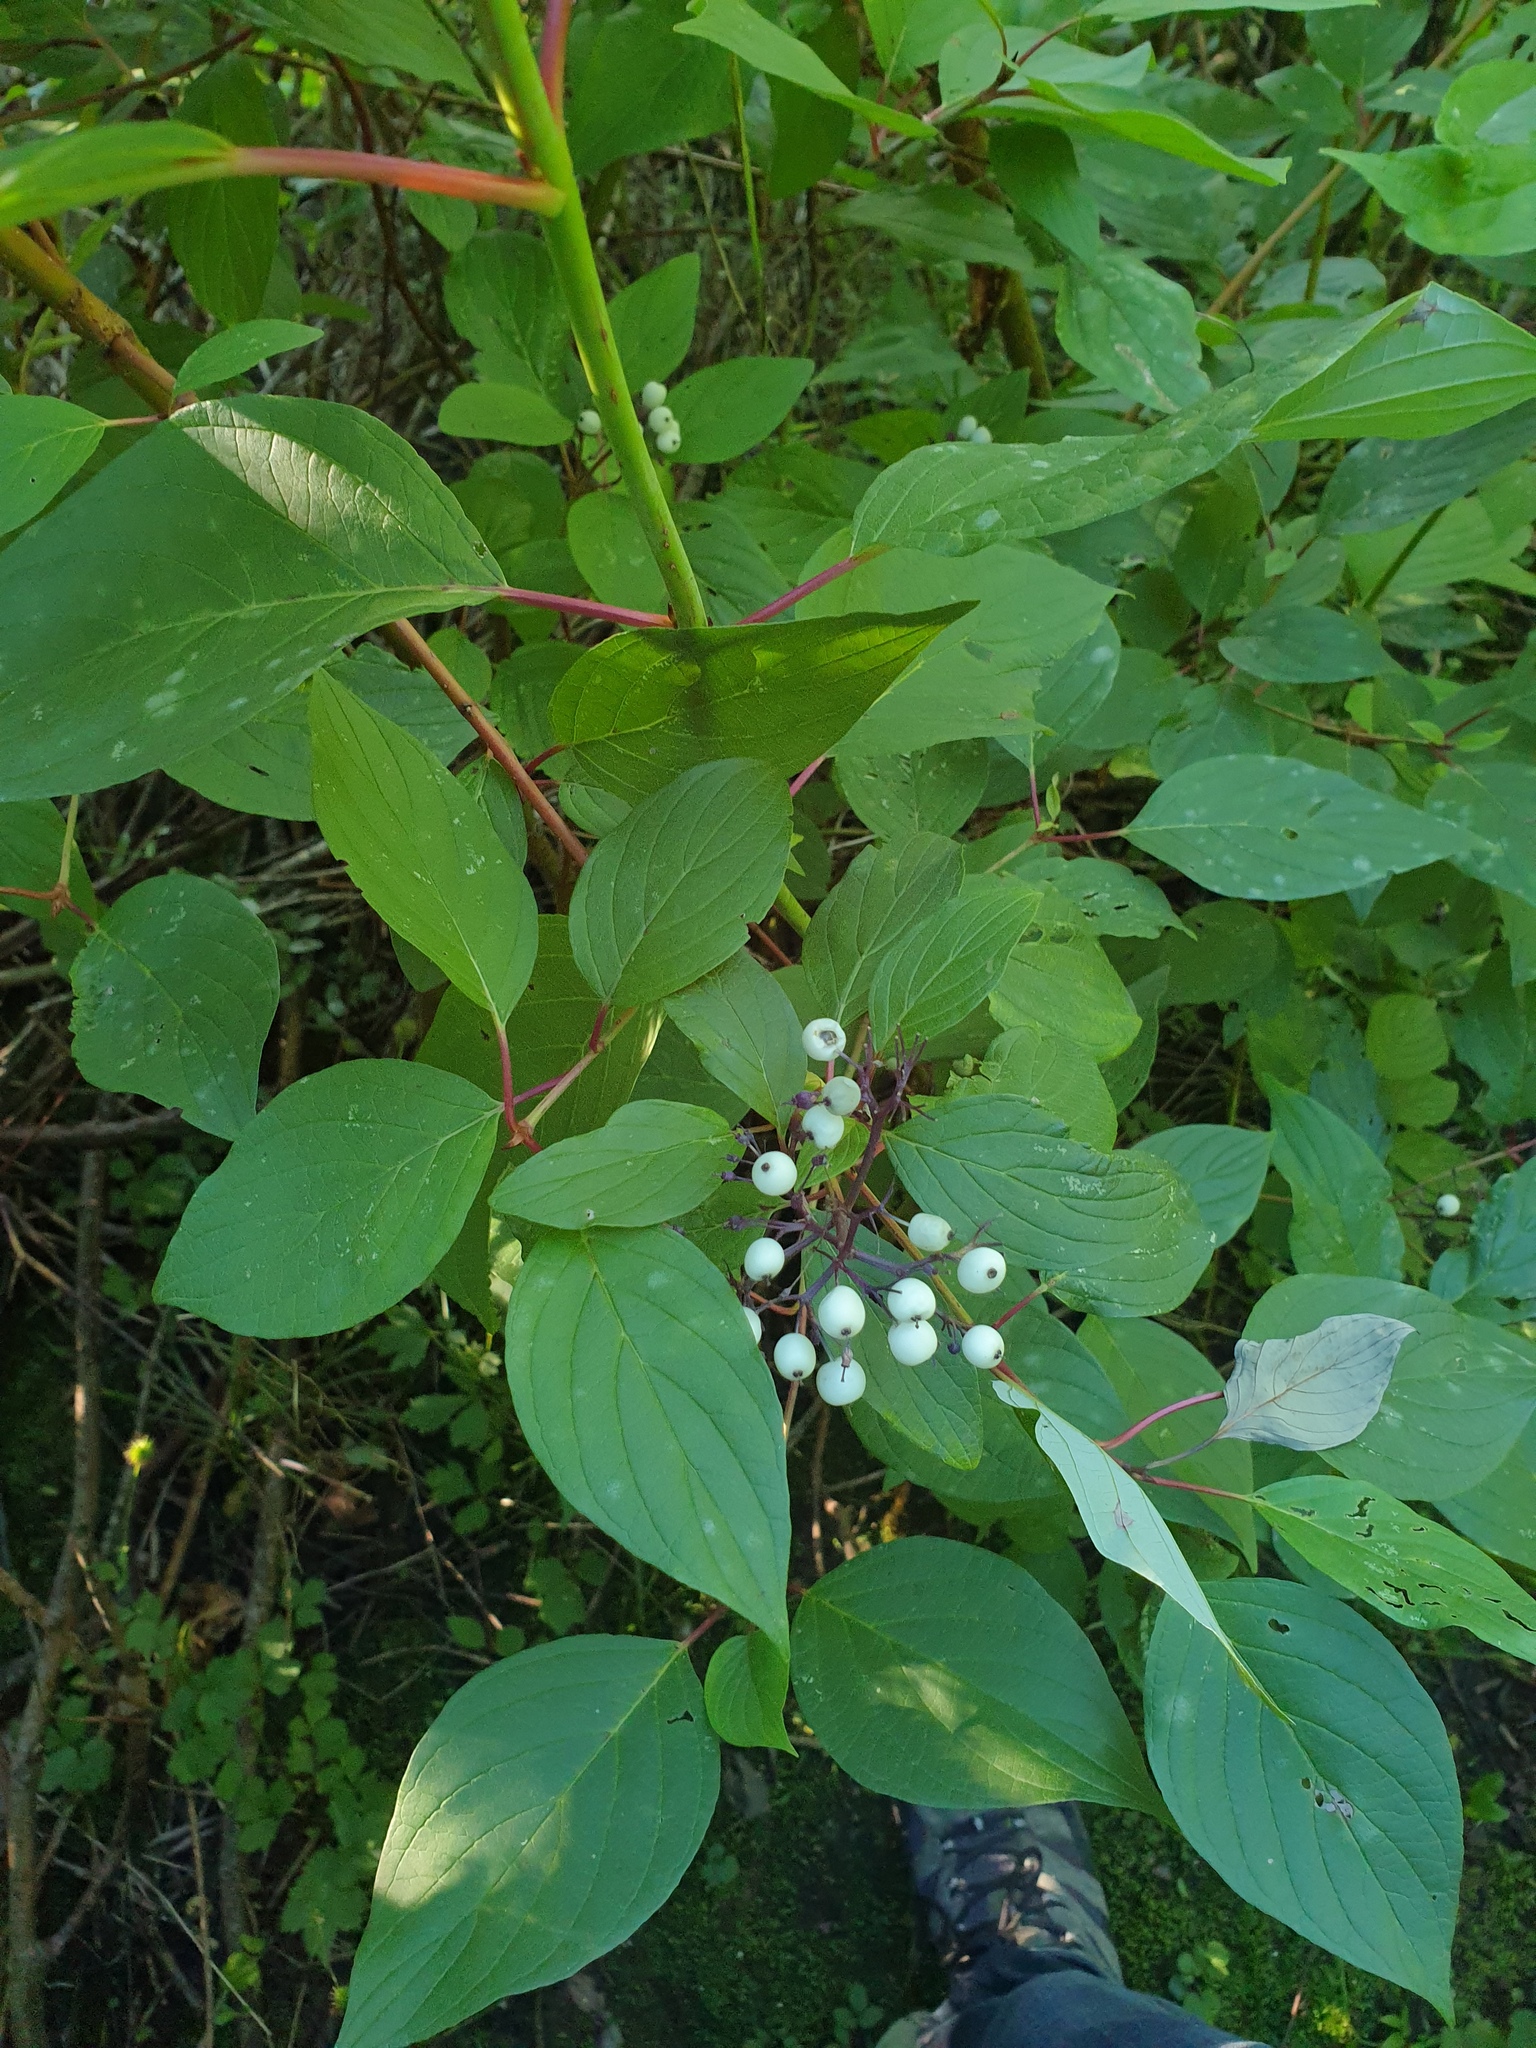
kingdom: Plantae
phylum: Tracheophyta
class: Magnoliopsida
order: Cornales
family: Cornaceae
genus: Cornus
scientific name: Cornus sericea
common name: Red-osier dogwood
